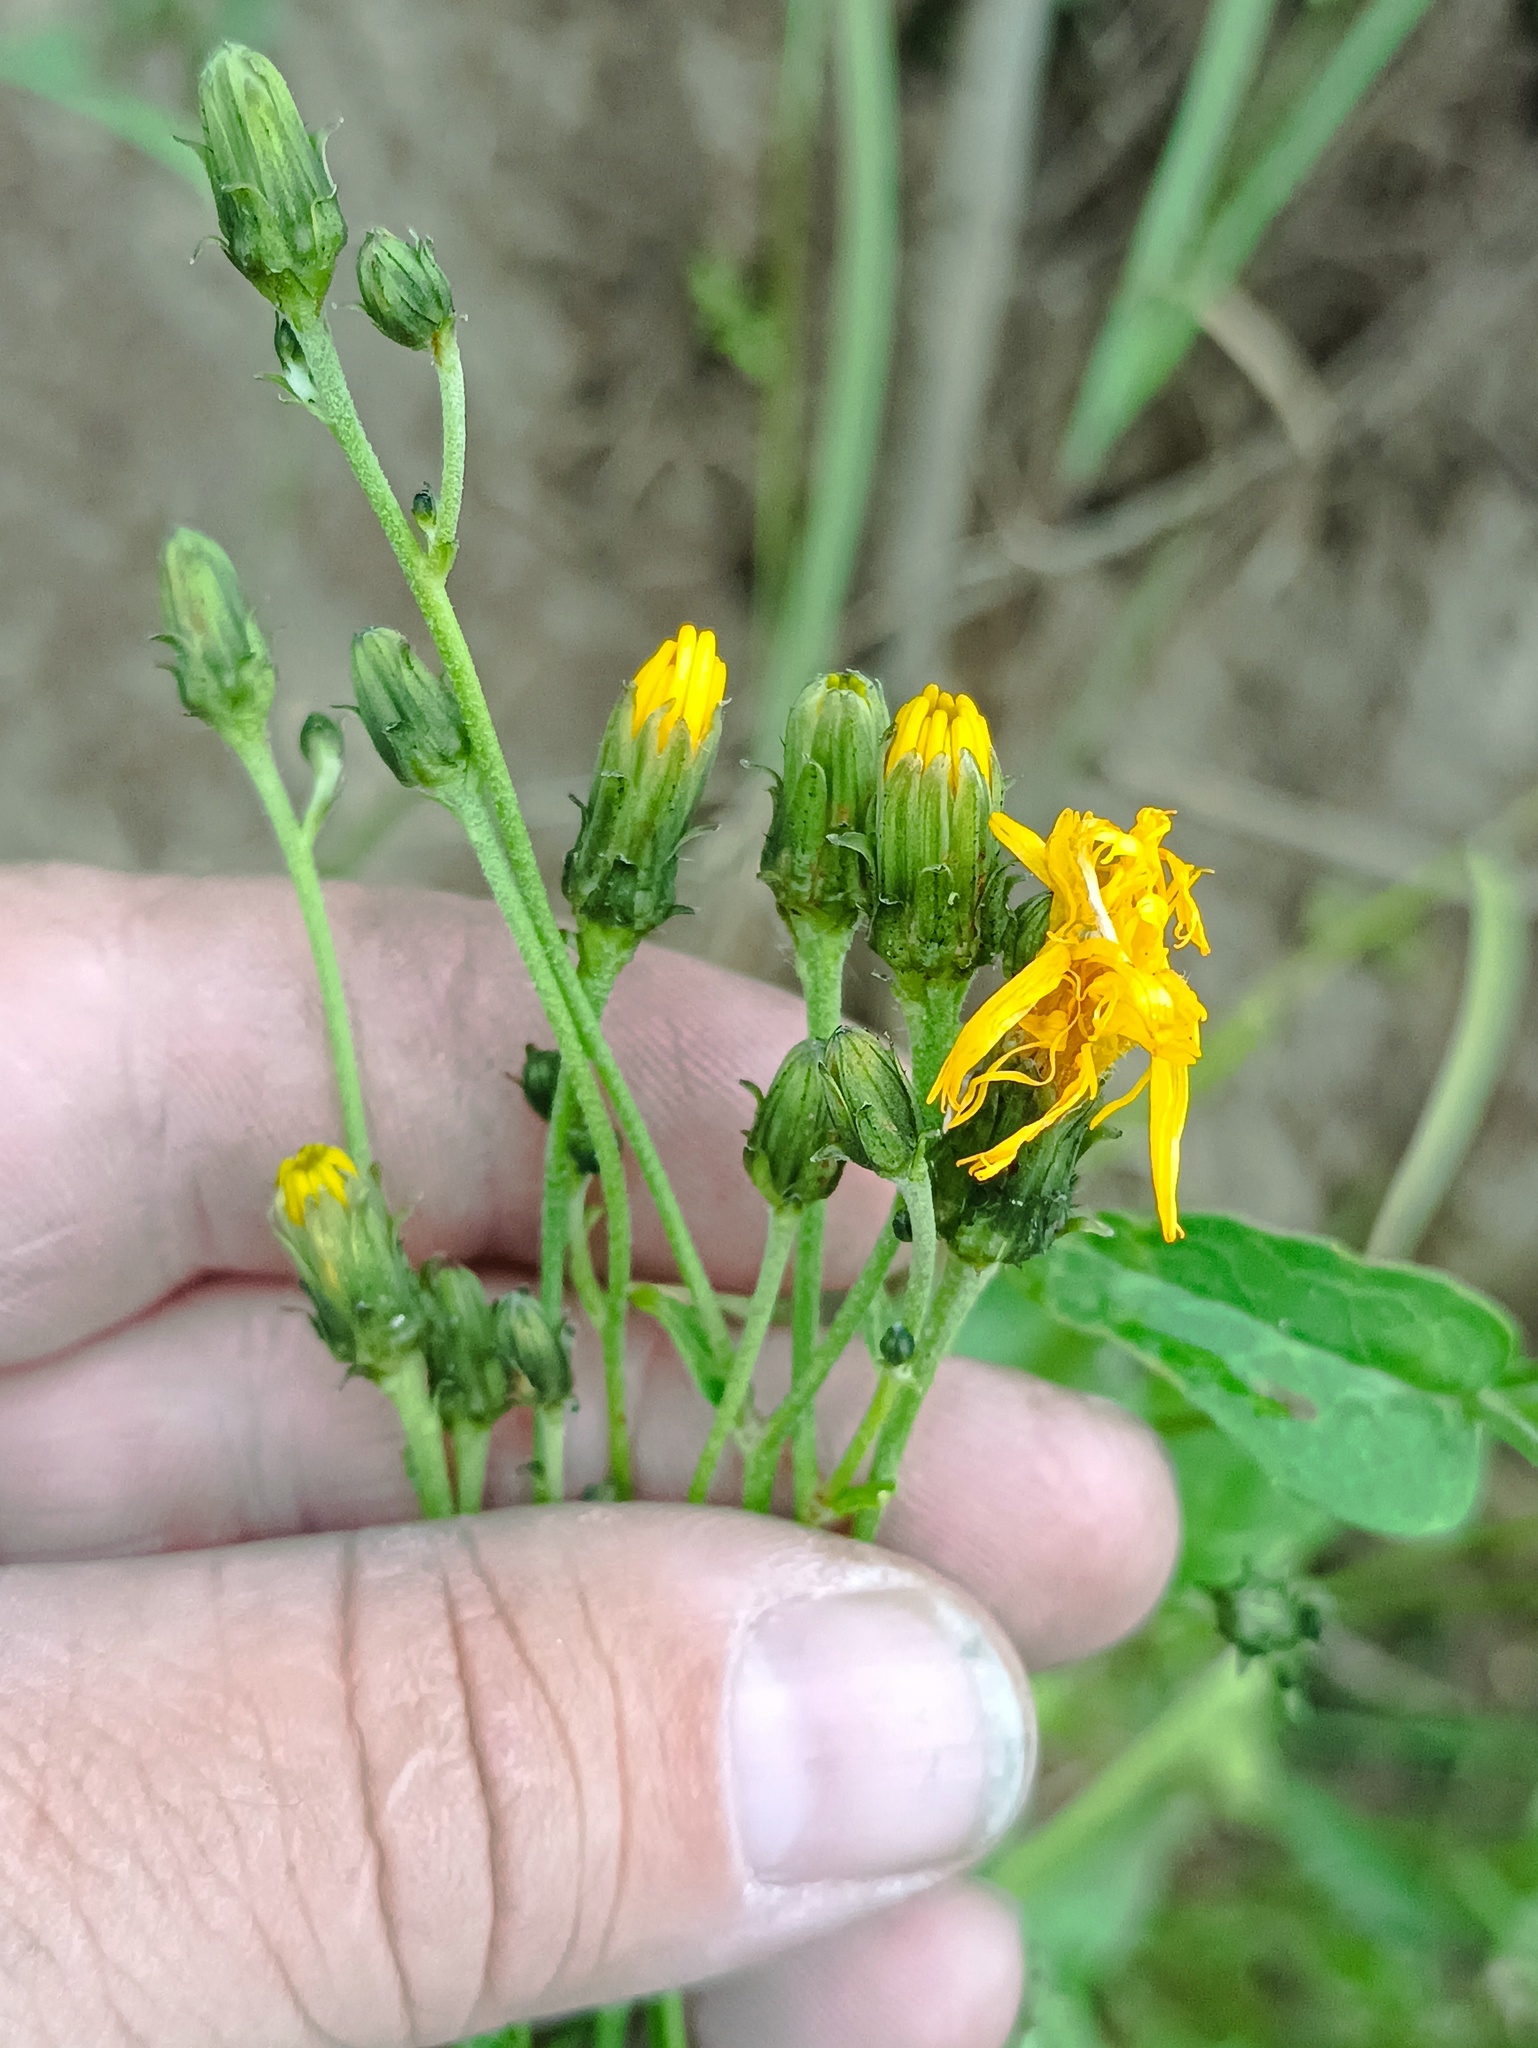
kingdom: Plantae
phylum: Tracheophyta
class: Magnoliopsida
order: Asterales
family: Asteraceae
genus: Hieracium
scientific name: Hieracium umbellatum
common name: Northern hawkweed
